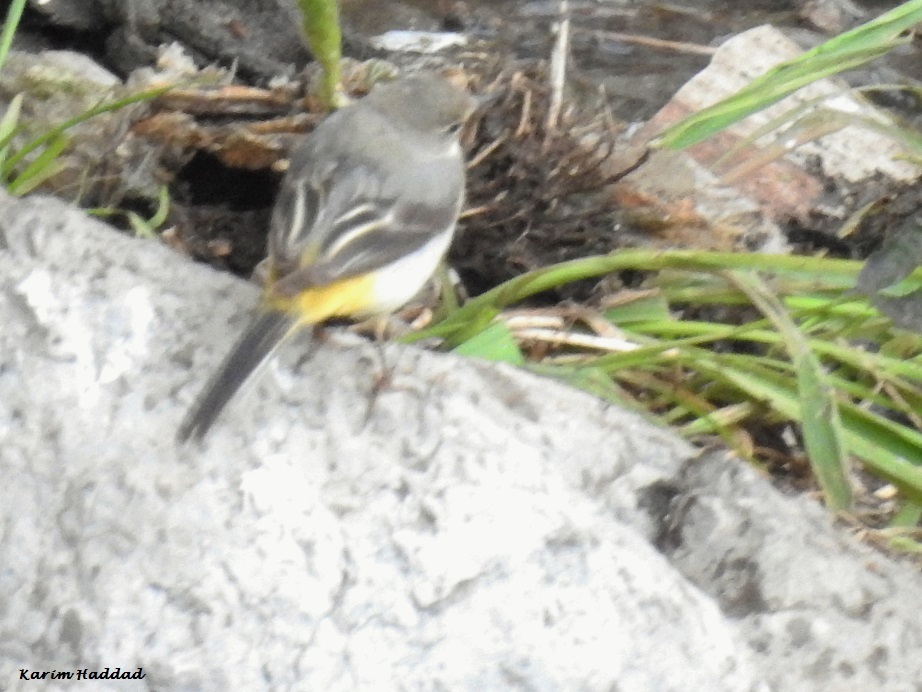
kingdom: Animalia
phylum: Chordata
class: Aves
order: Passeriformes
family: Motacillidae
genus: Motacilla
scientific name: Motacilla cinerea
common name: Grey wagtail
